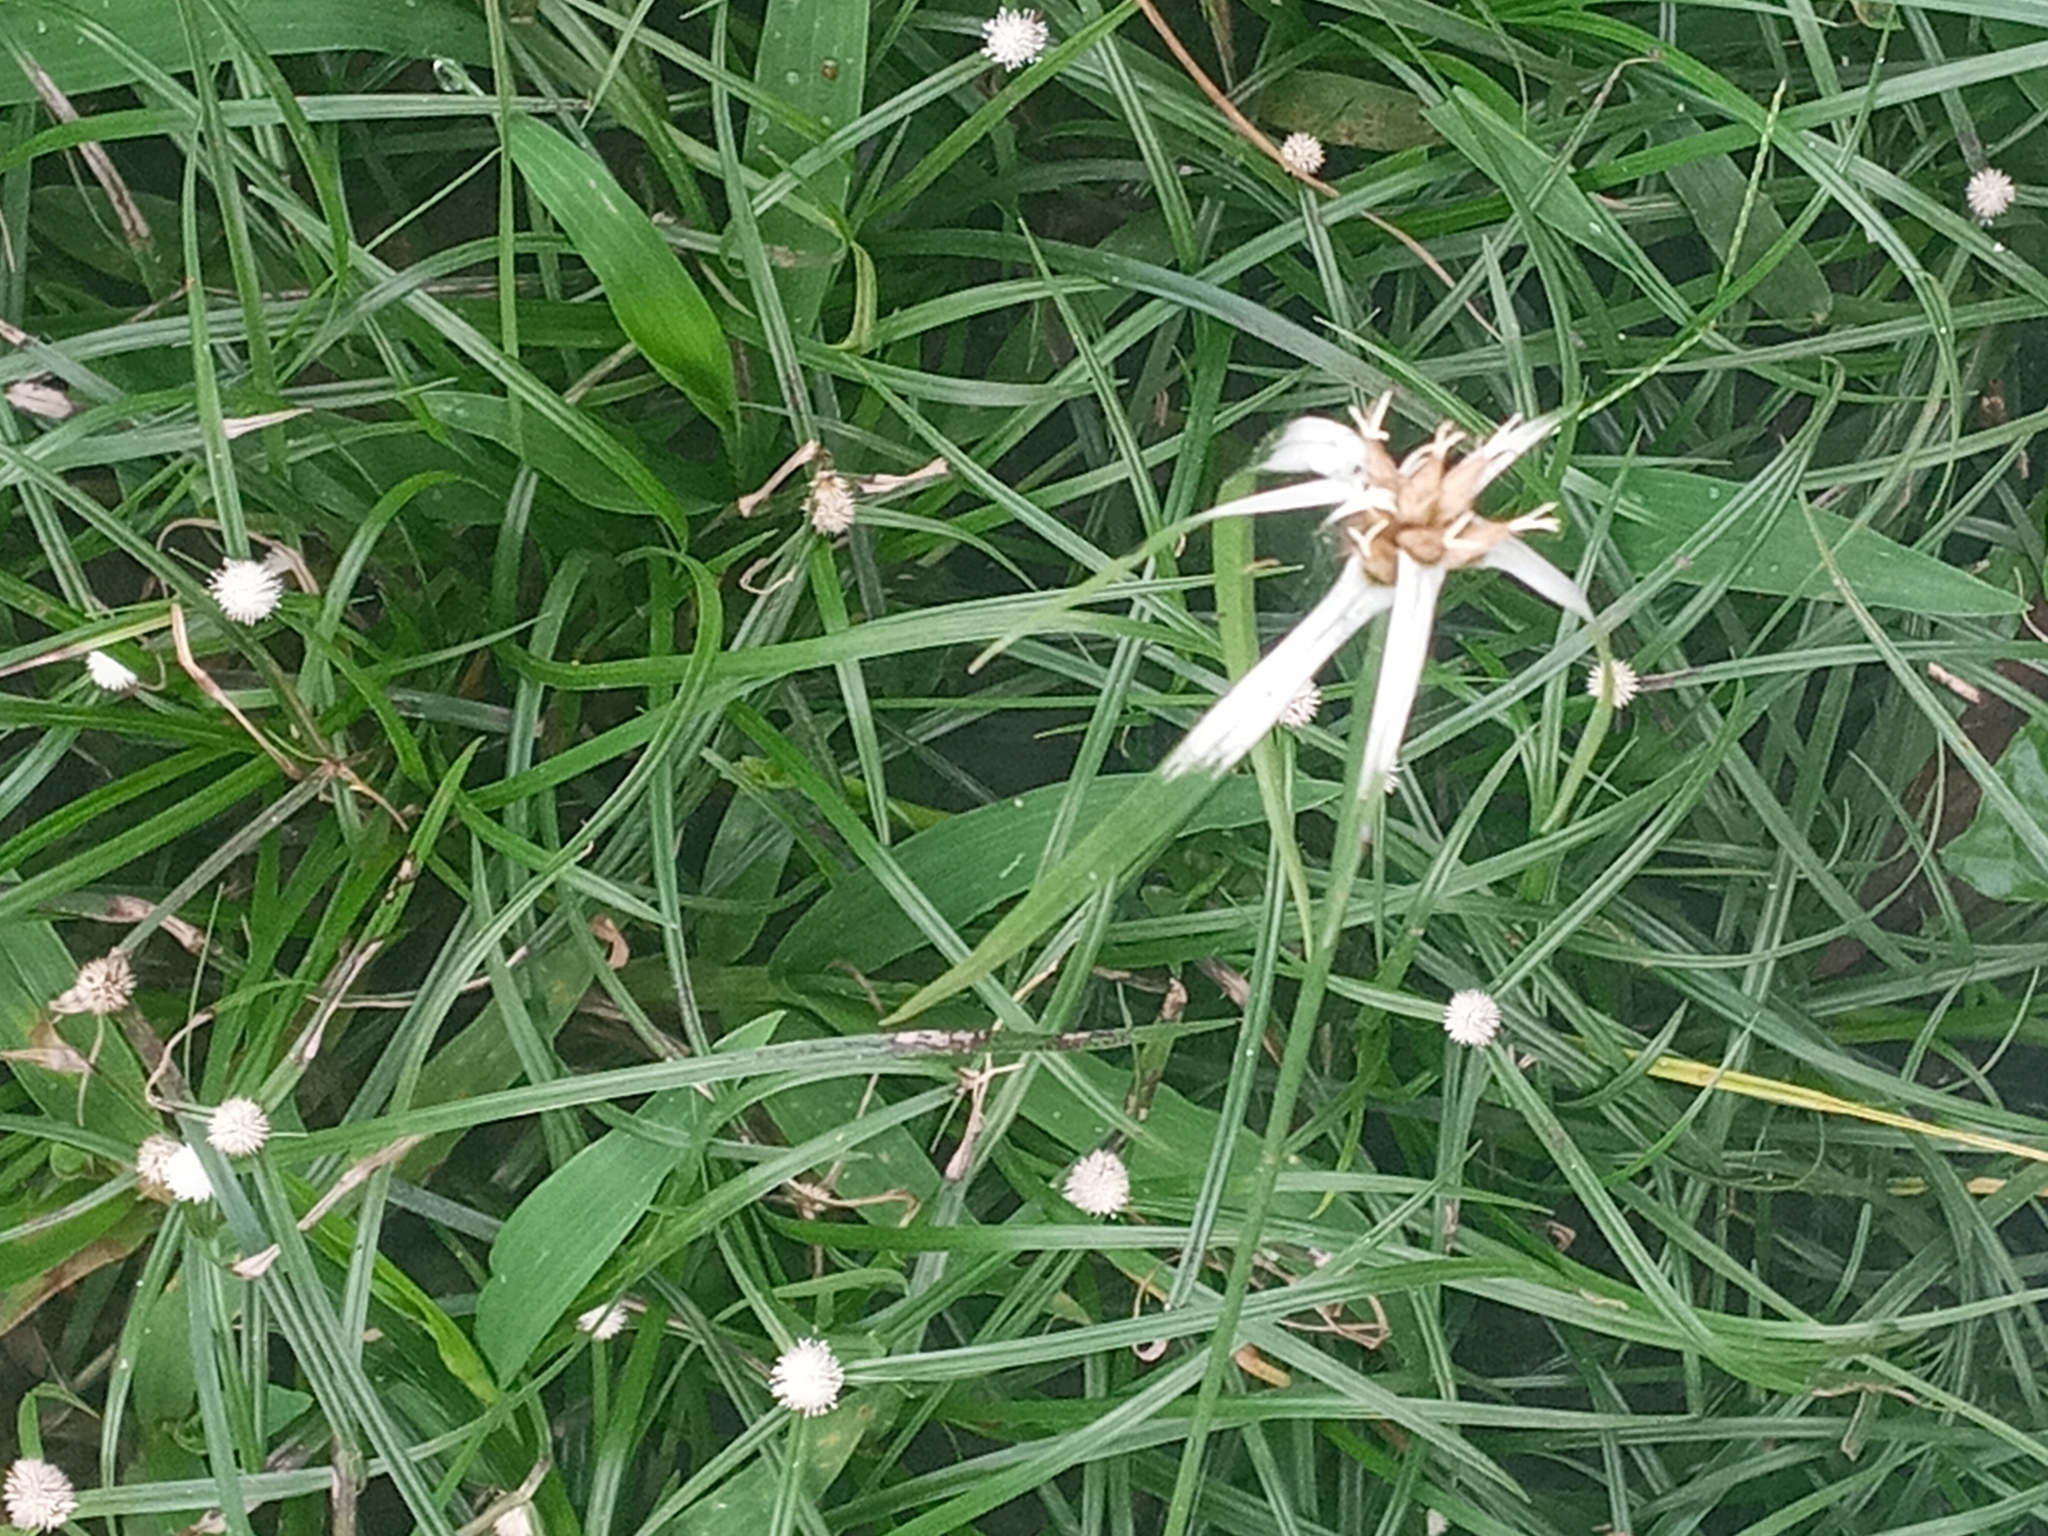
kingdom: Plantae
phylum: Tracheophyta
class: Liliopsida
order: Poales
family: Cyperaceae
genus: Rhynchospora
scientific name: Rhynchospora nervosa
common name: Star sedge
